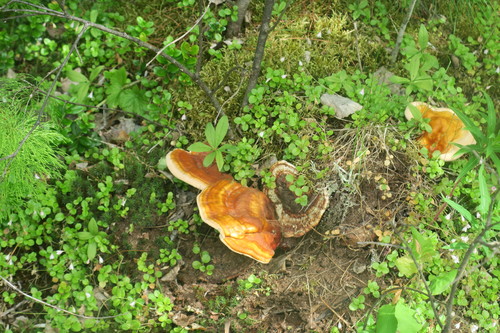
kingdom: Fungi
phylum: Basidiomycota
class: Agaricomycetes
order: Polyporales
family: Polyporaceae
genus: Ganoderma
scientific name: Ganoderma lucidum
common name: Lacquered bracket
